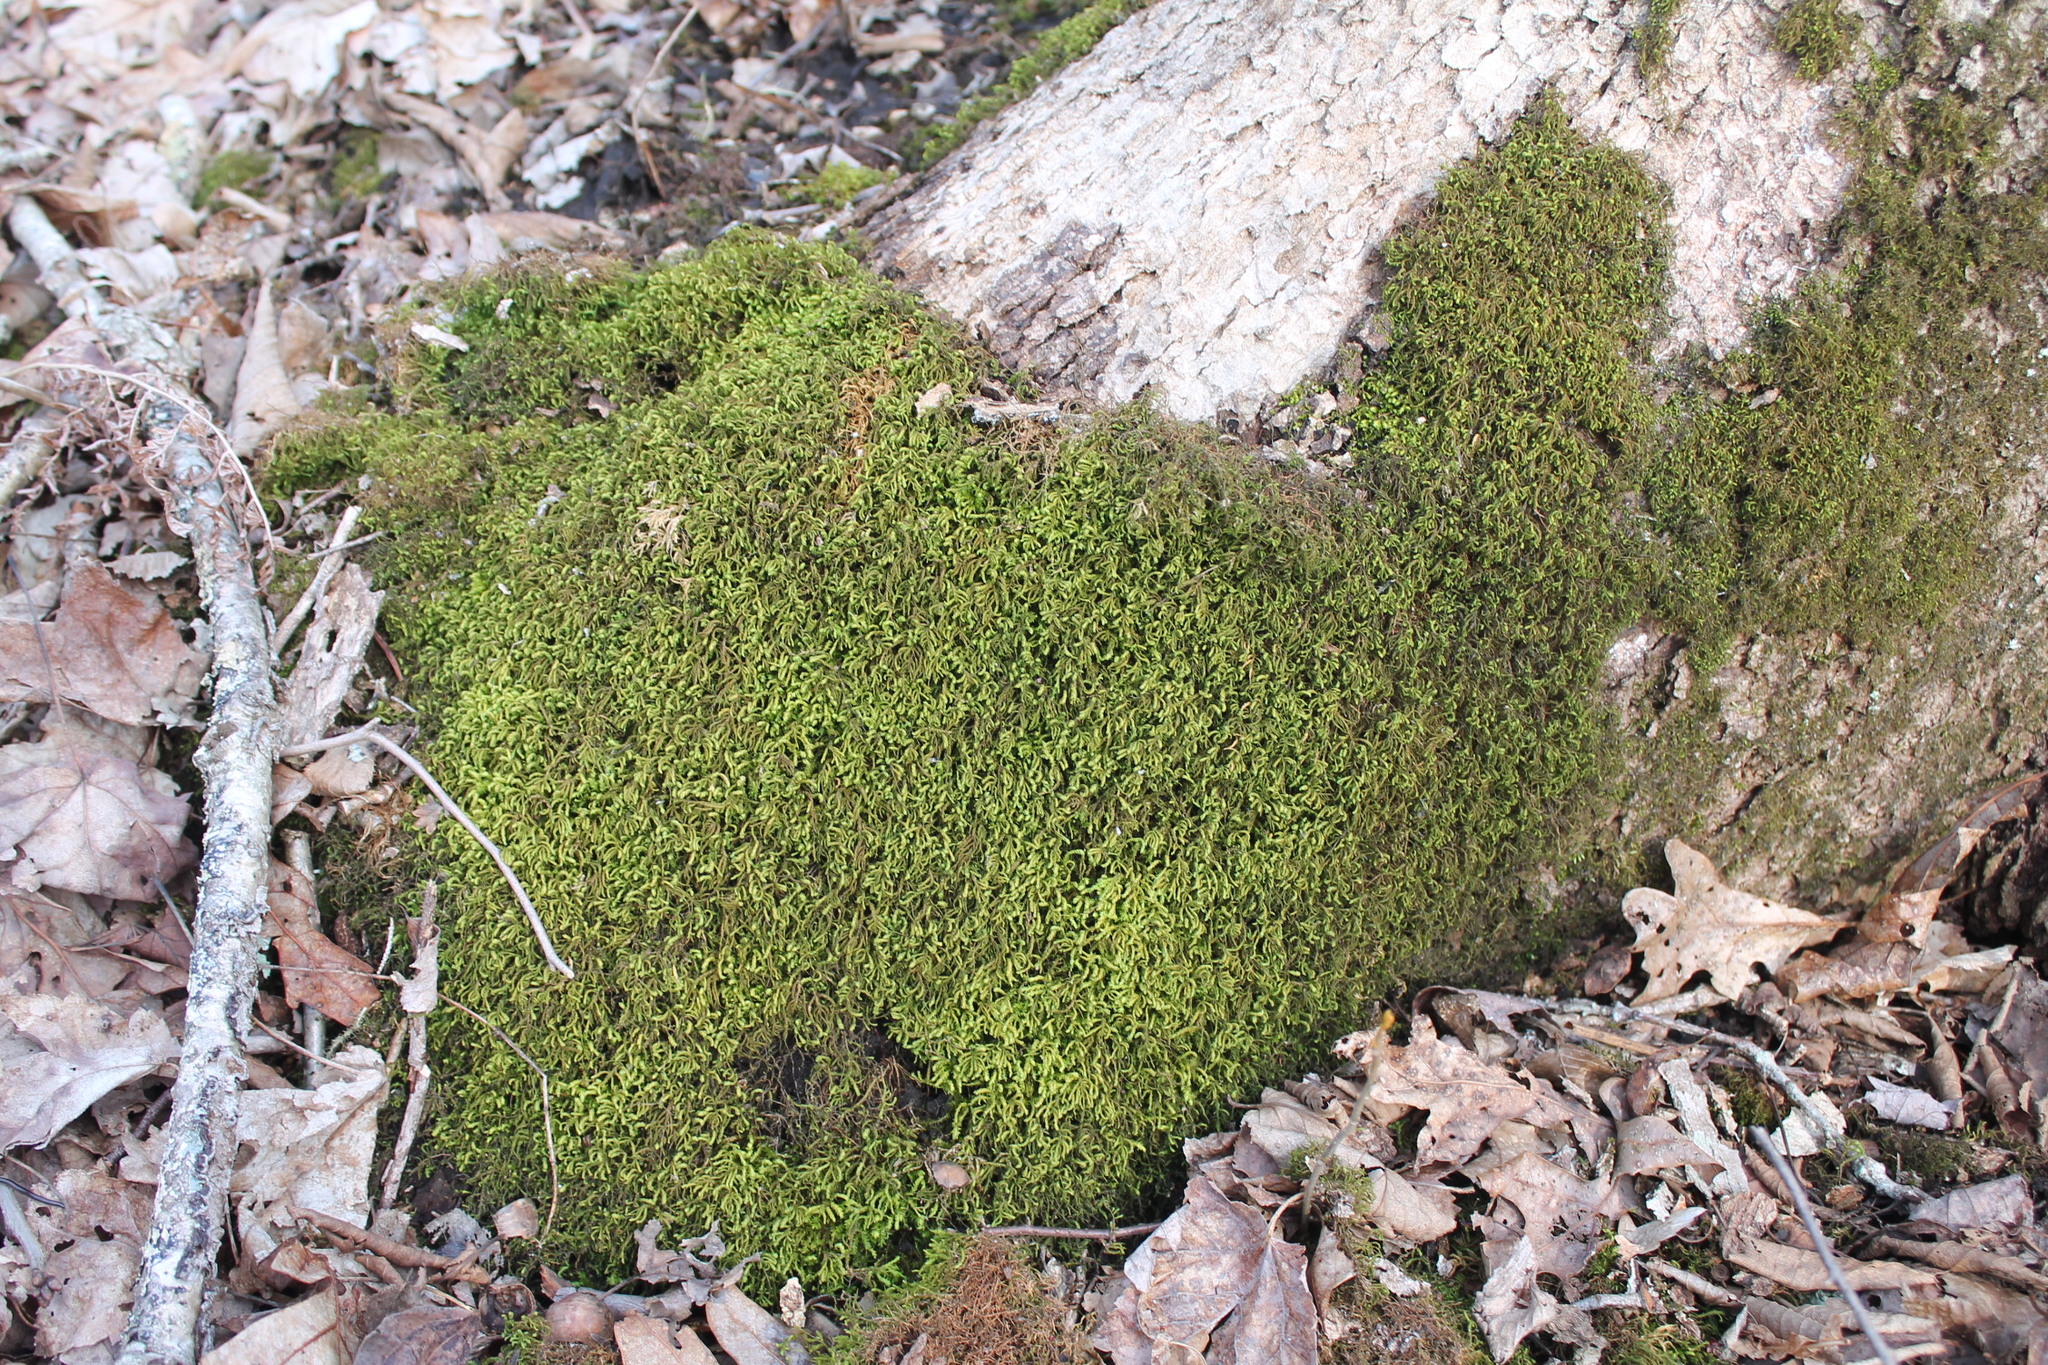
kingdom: Plantae
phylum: Bryophyta
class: Bryopsida
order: Hypnales
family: Neckeraceae
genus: Pseudanomodon
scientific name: Pseudanomodon attenuatus
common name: Tree-skirt moss
